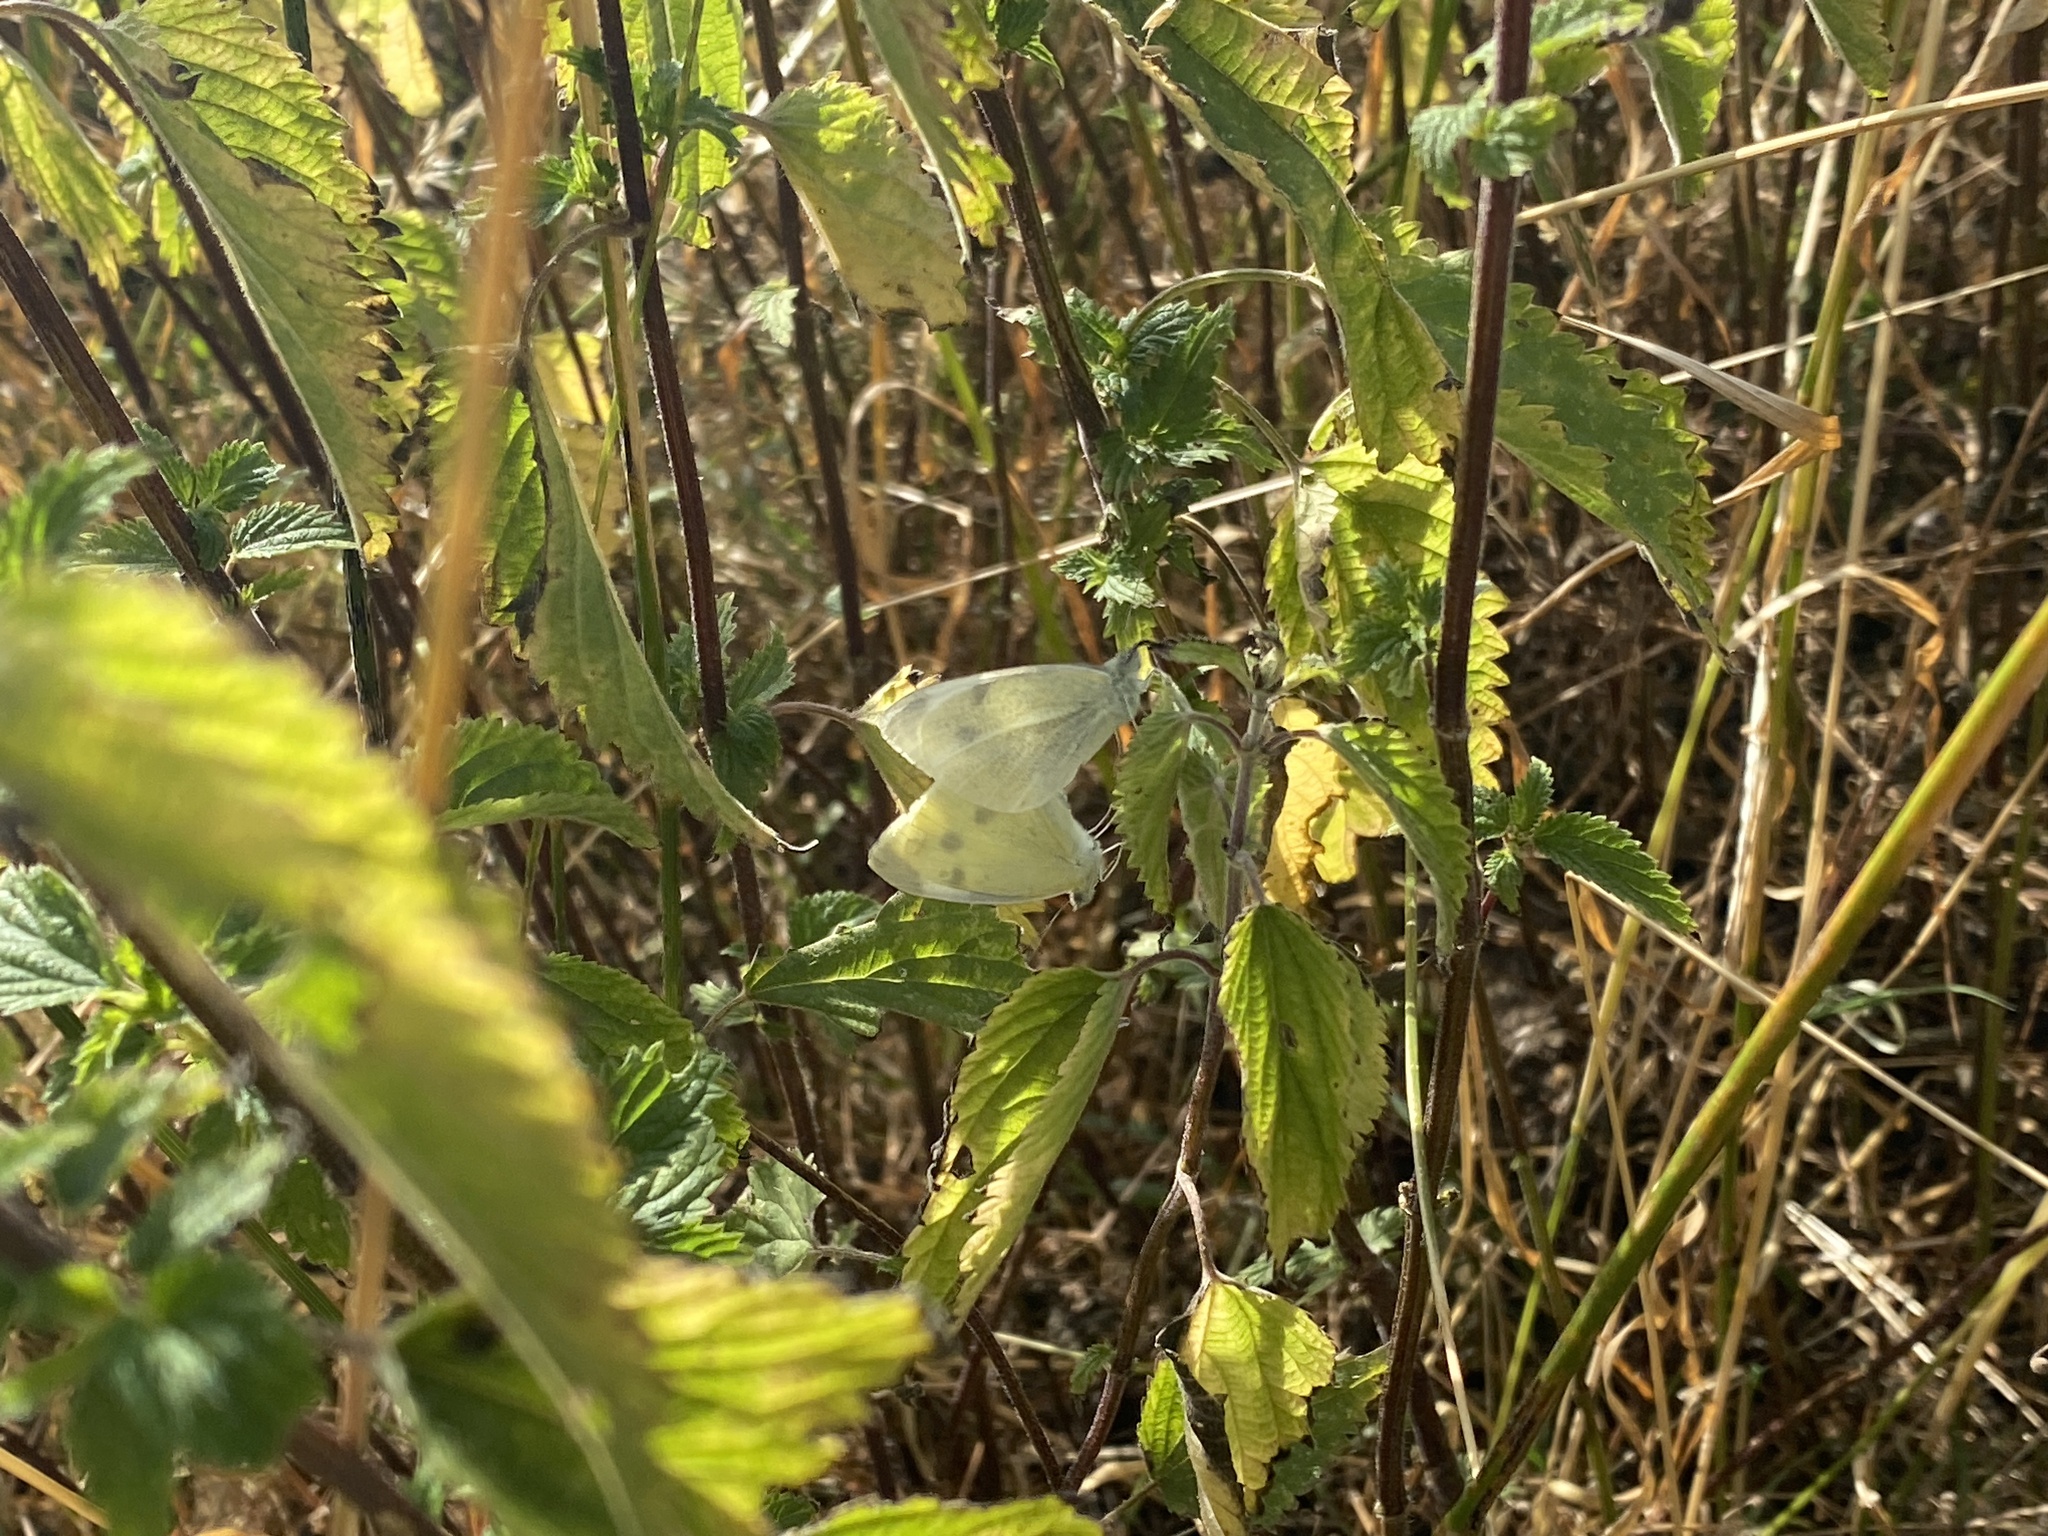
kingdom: Animalia
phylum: Arthropoda
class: Insecta
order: Lepidoptera
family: Pieridae
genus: Pieris
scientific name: Pieris rapae
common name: Small white
